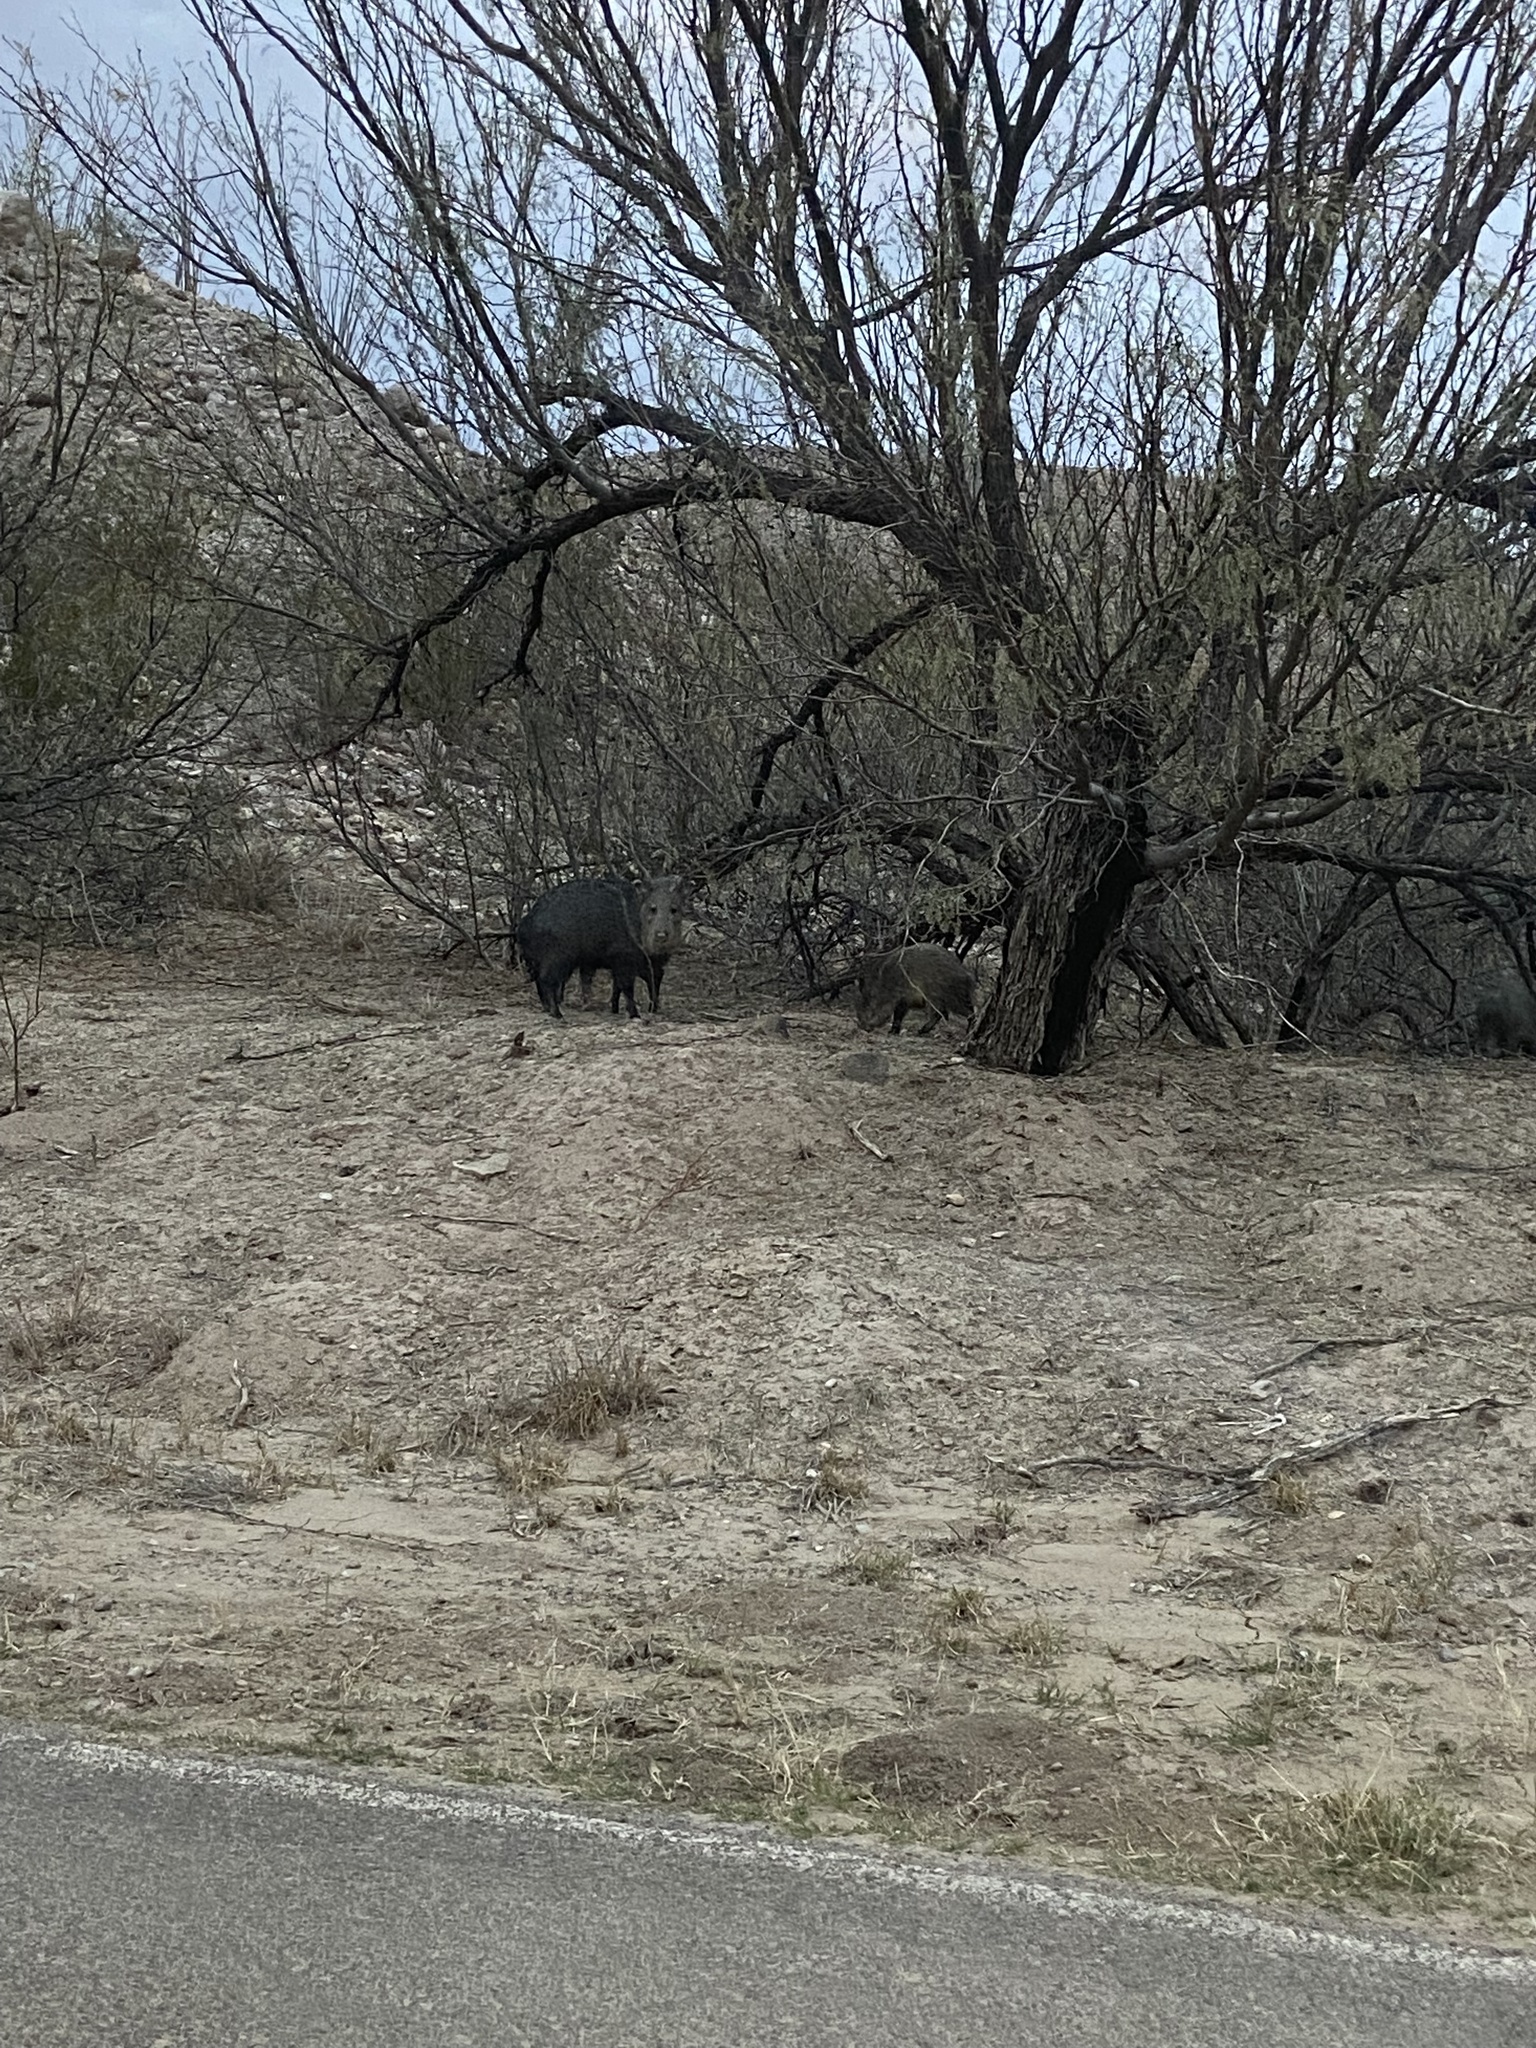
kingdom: Animalia
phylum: Chordata
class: Mammalia
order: Artiodactyla
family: Tayassuidae
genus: Pecari
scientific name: Pecari tajacu
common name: Collared peccary
